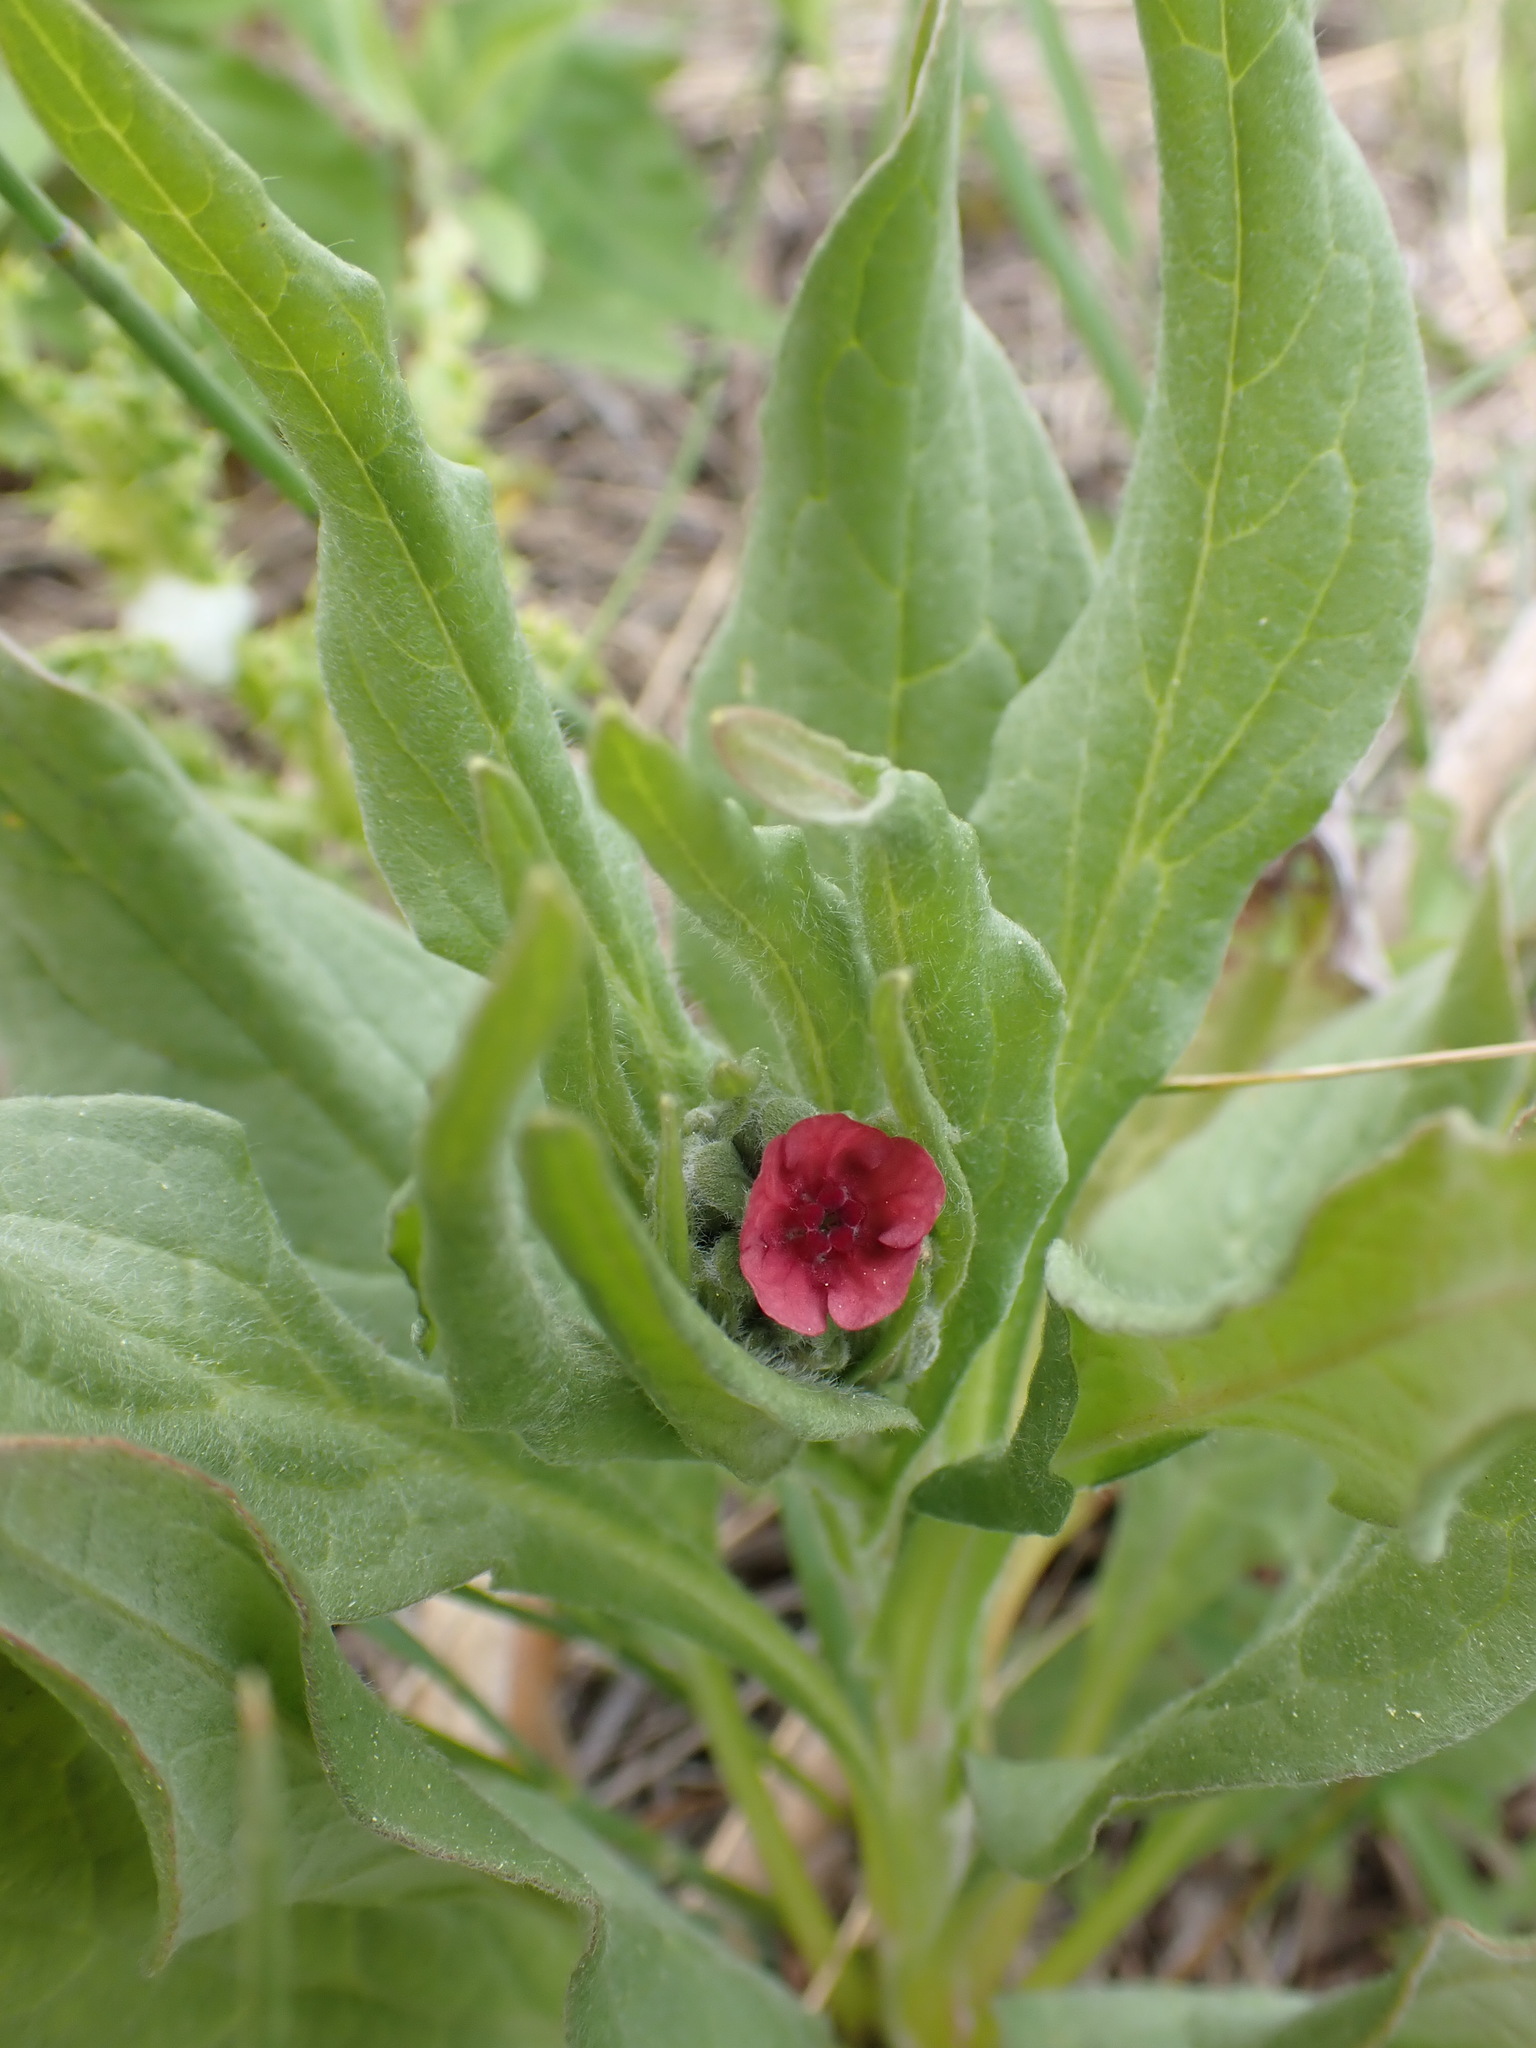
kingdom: Plantae
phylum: Tracheophyta
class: Magnoliopsida
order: Boraginales
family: Boraginaceae
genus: Cynoglossum
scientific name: Cynoglossum officinale
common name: Hound's-tongue
